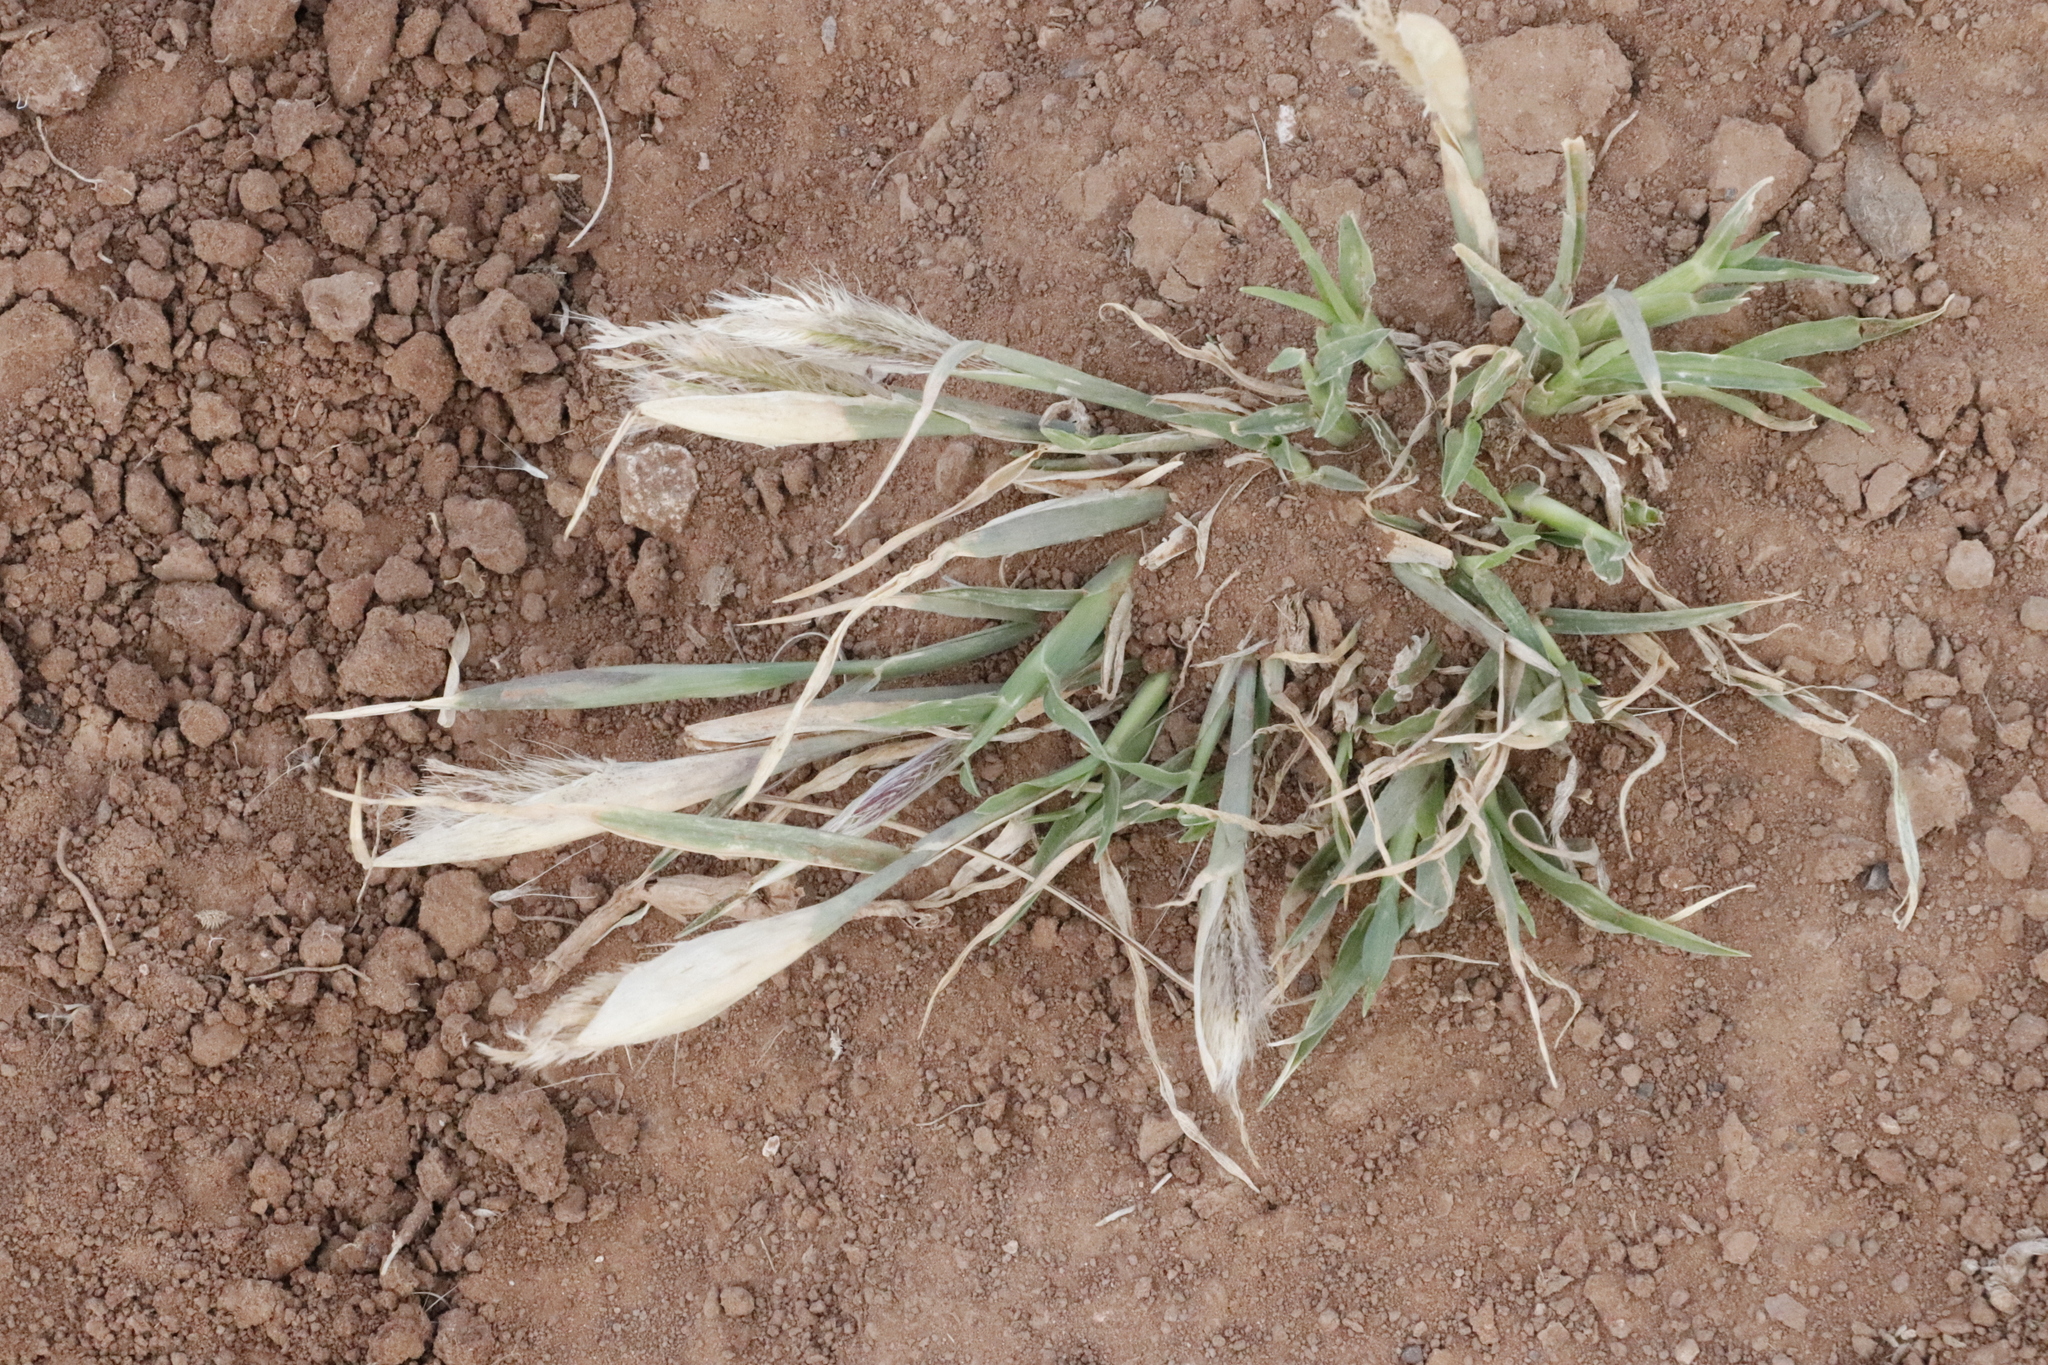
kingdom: Plantae
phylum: Tracheophyta
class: Liliopsida
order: Poales
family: Poaceae
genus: Chloris
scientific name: Chloris virgata
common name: Feathery rhodes-grass
